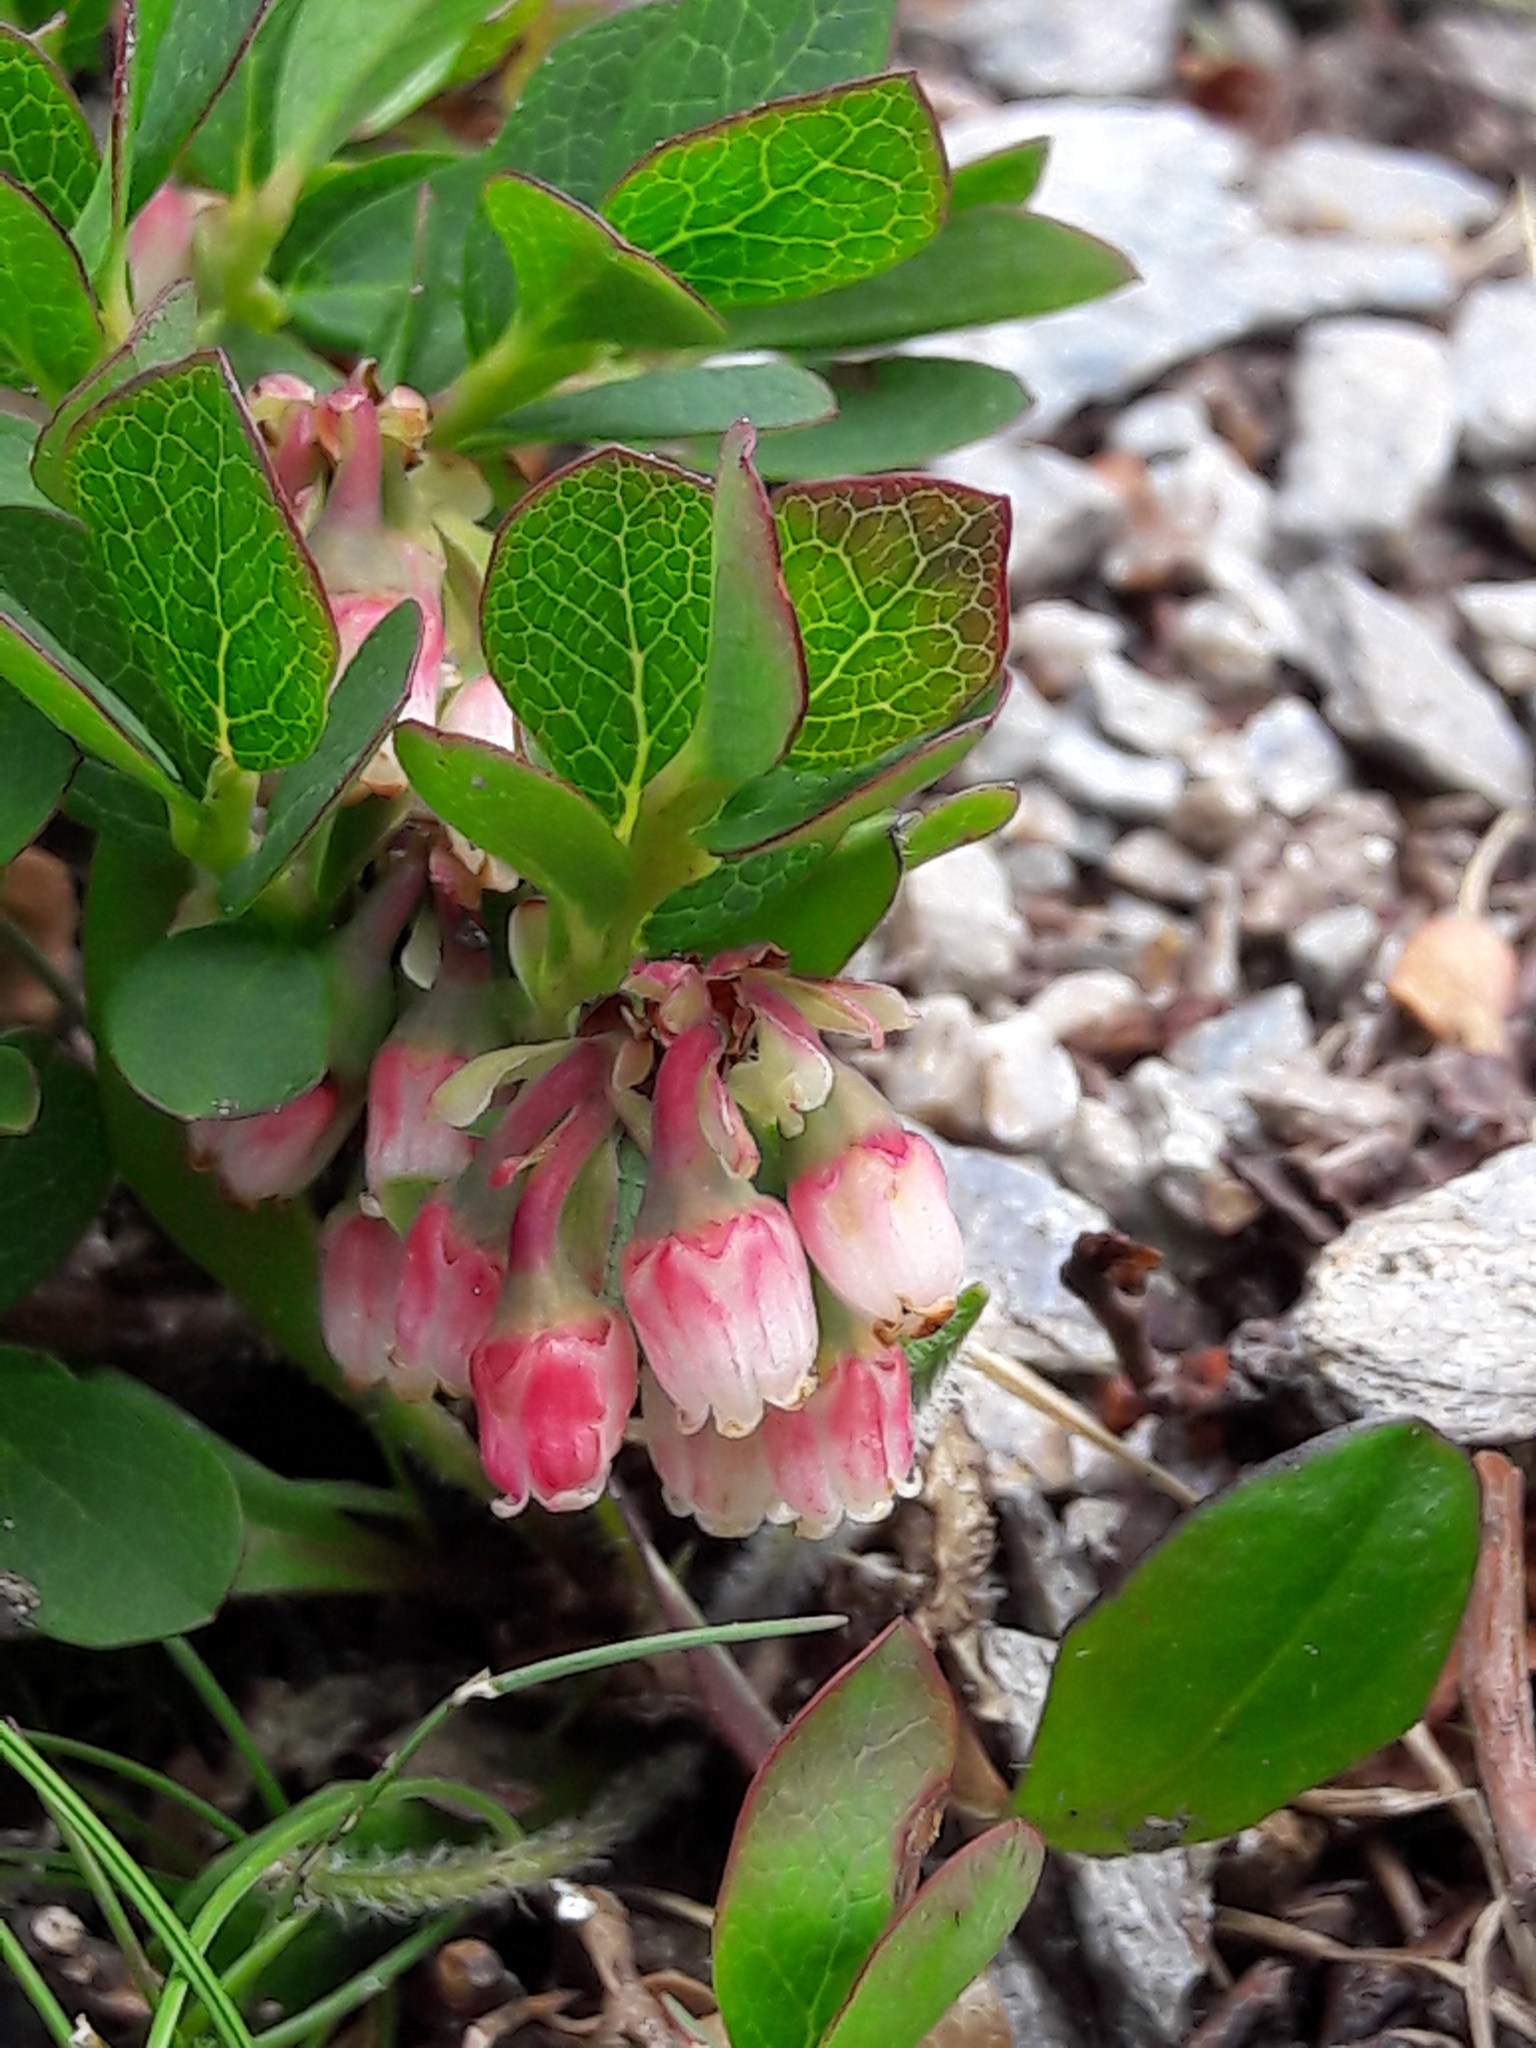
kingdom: Plantae
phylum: Tracheophyta
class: Magnoliopsida
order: Ericales
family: Ericaceae
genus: Vaccinium
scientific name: Vaccinium uliginosum
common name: Bog bilberry
